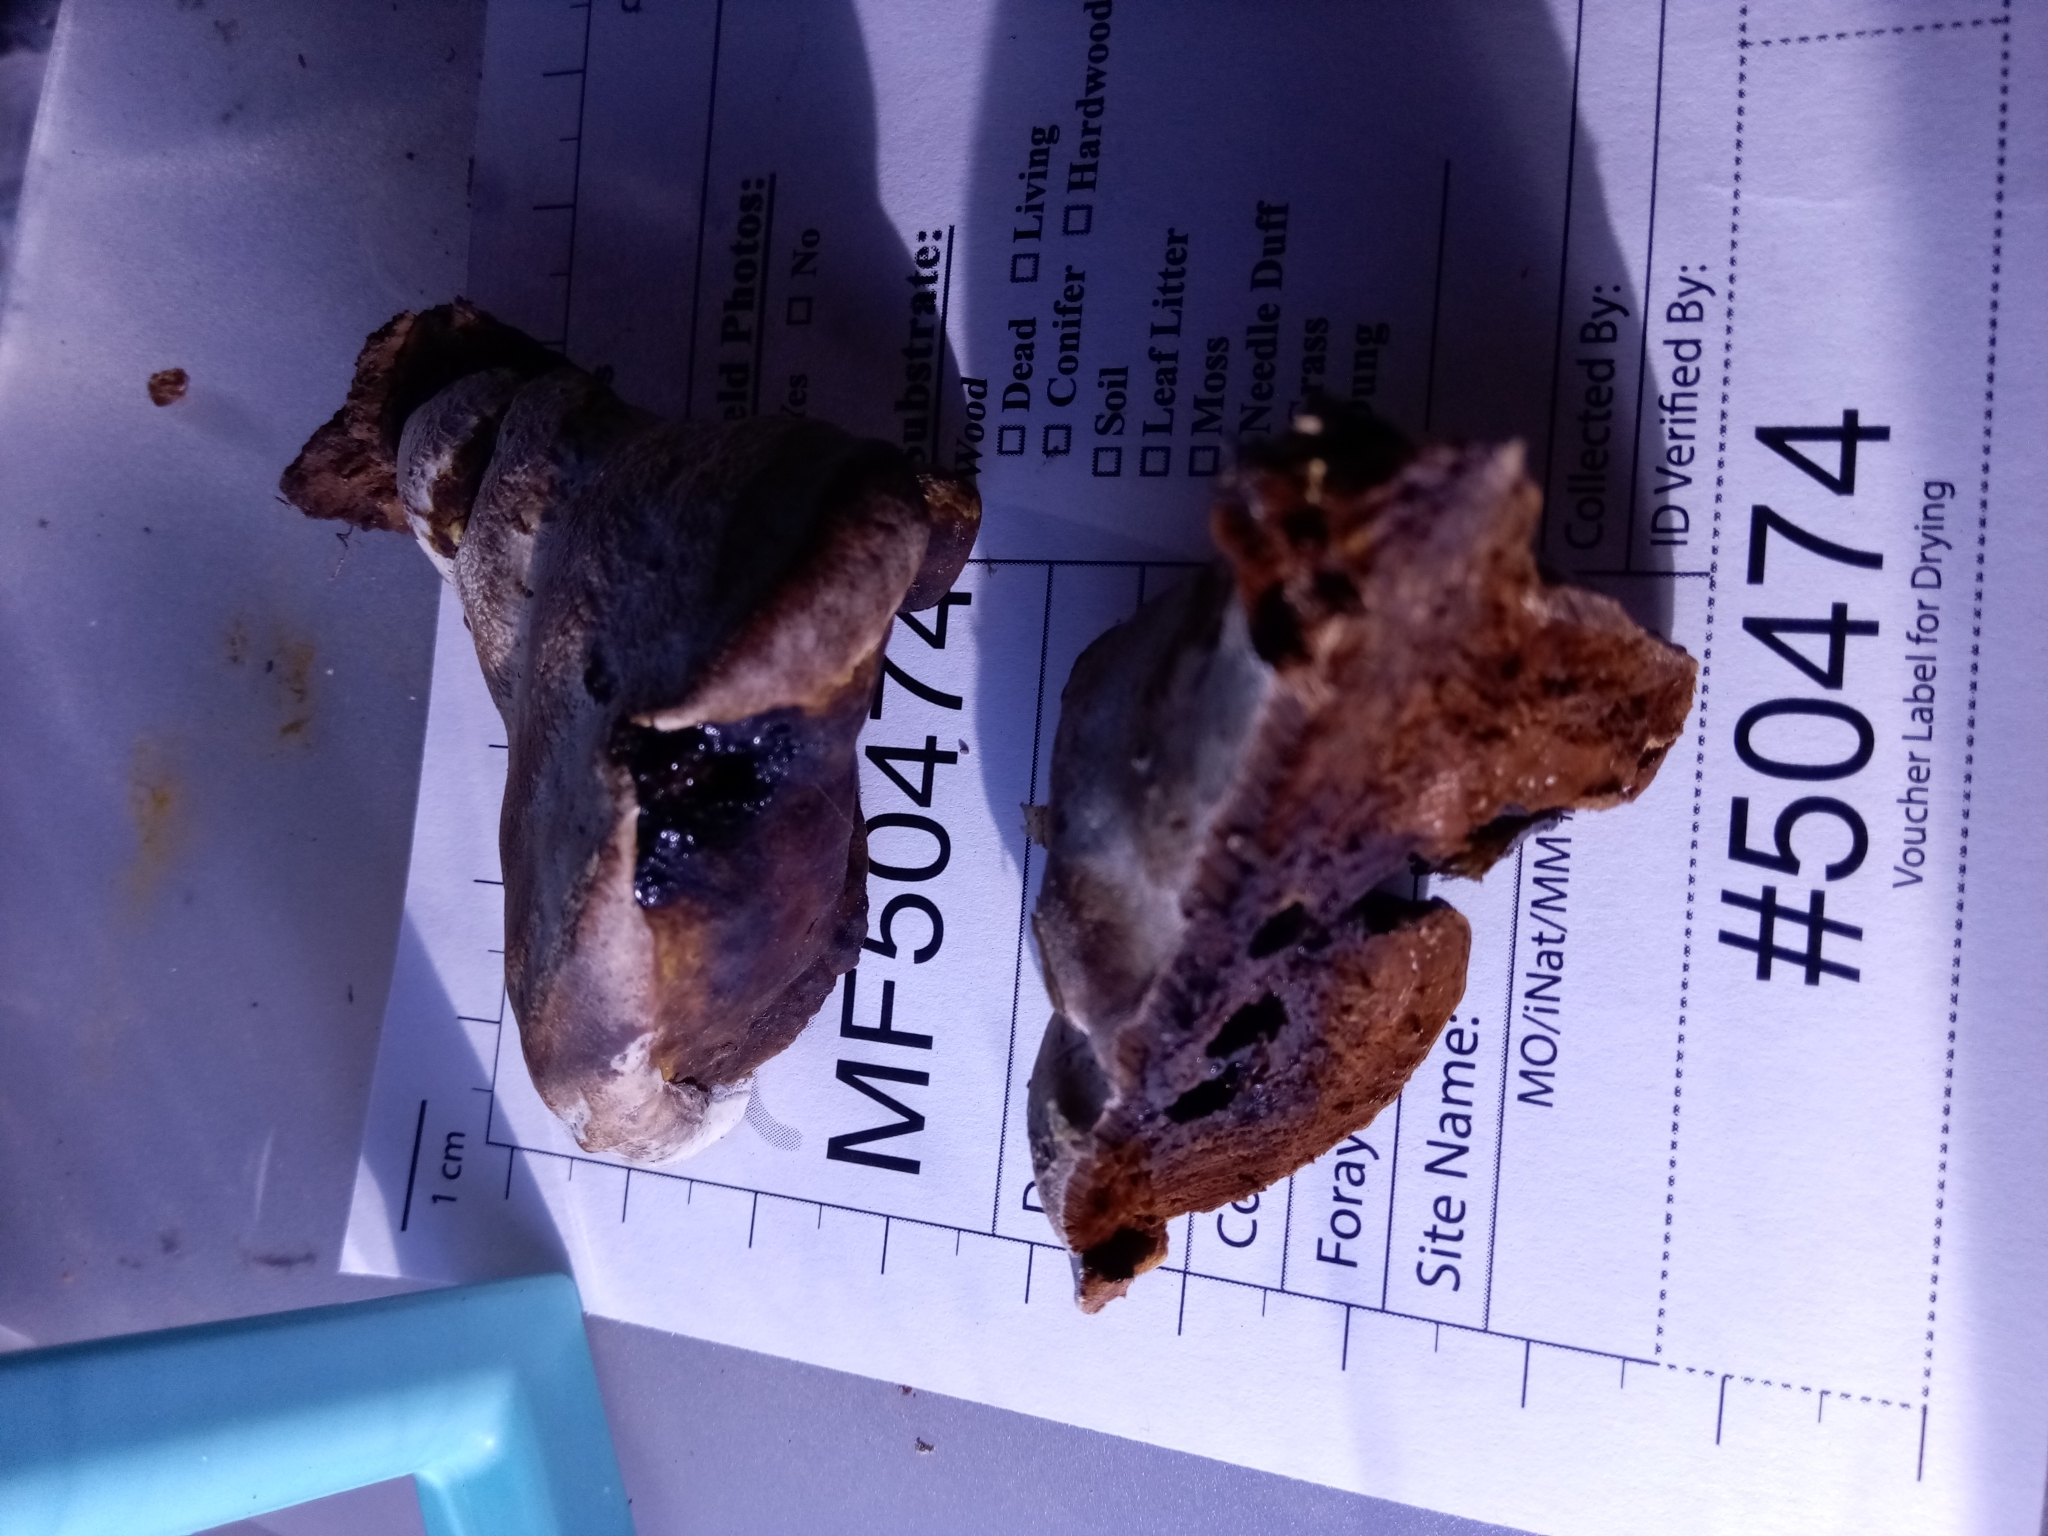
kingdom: Fungi
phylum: Basidiomycota
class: Agaricomycetes
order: Polyporales
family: Polyporaceae
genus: Ganoderma
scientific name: Ganoderma lobatum
